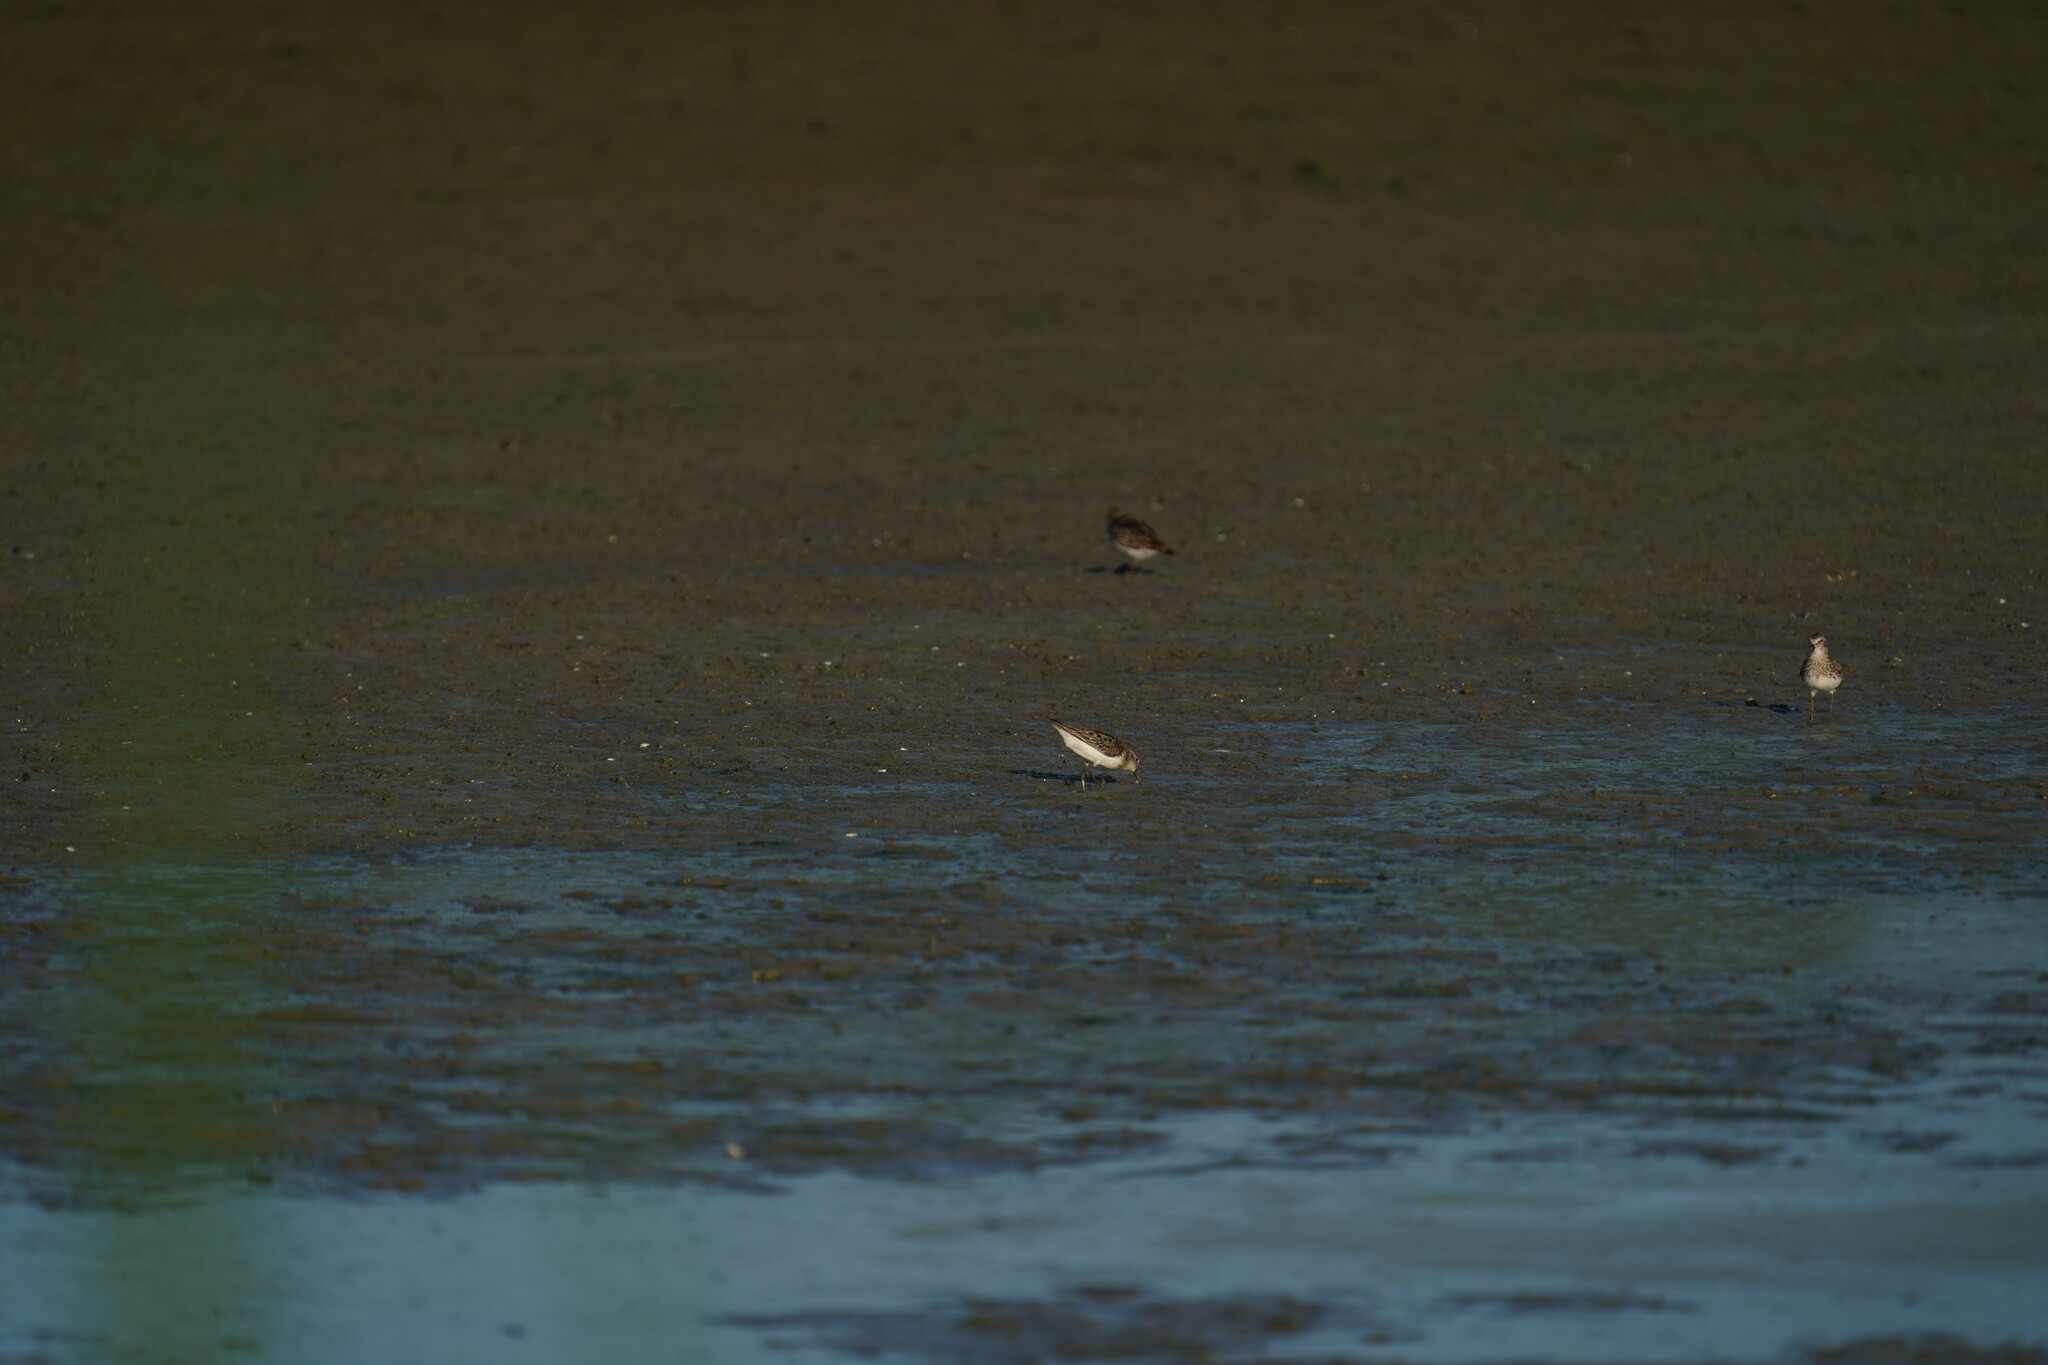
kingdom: Animalia
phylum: Chordata
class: Aves
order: Charadriiformes
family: Scolopacidae
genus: Calidris
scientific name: Calidris minutilla
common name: Least sandpiper
